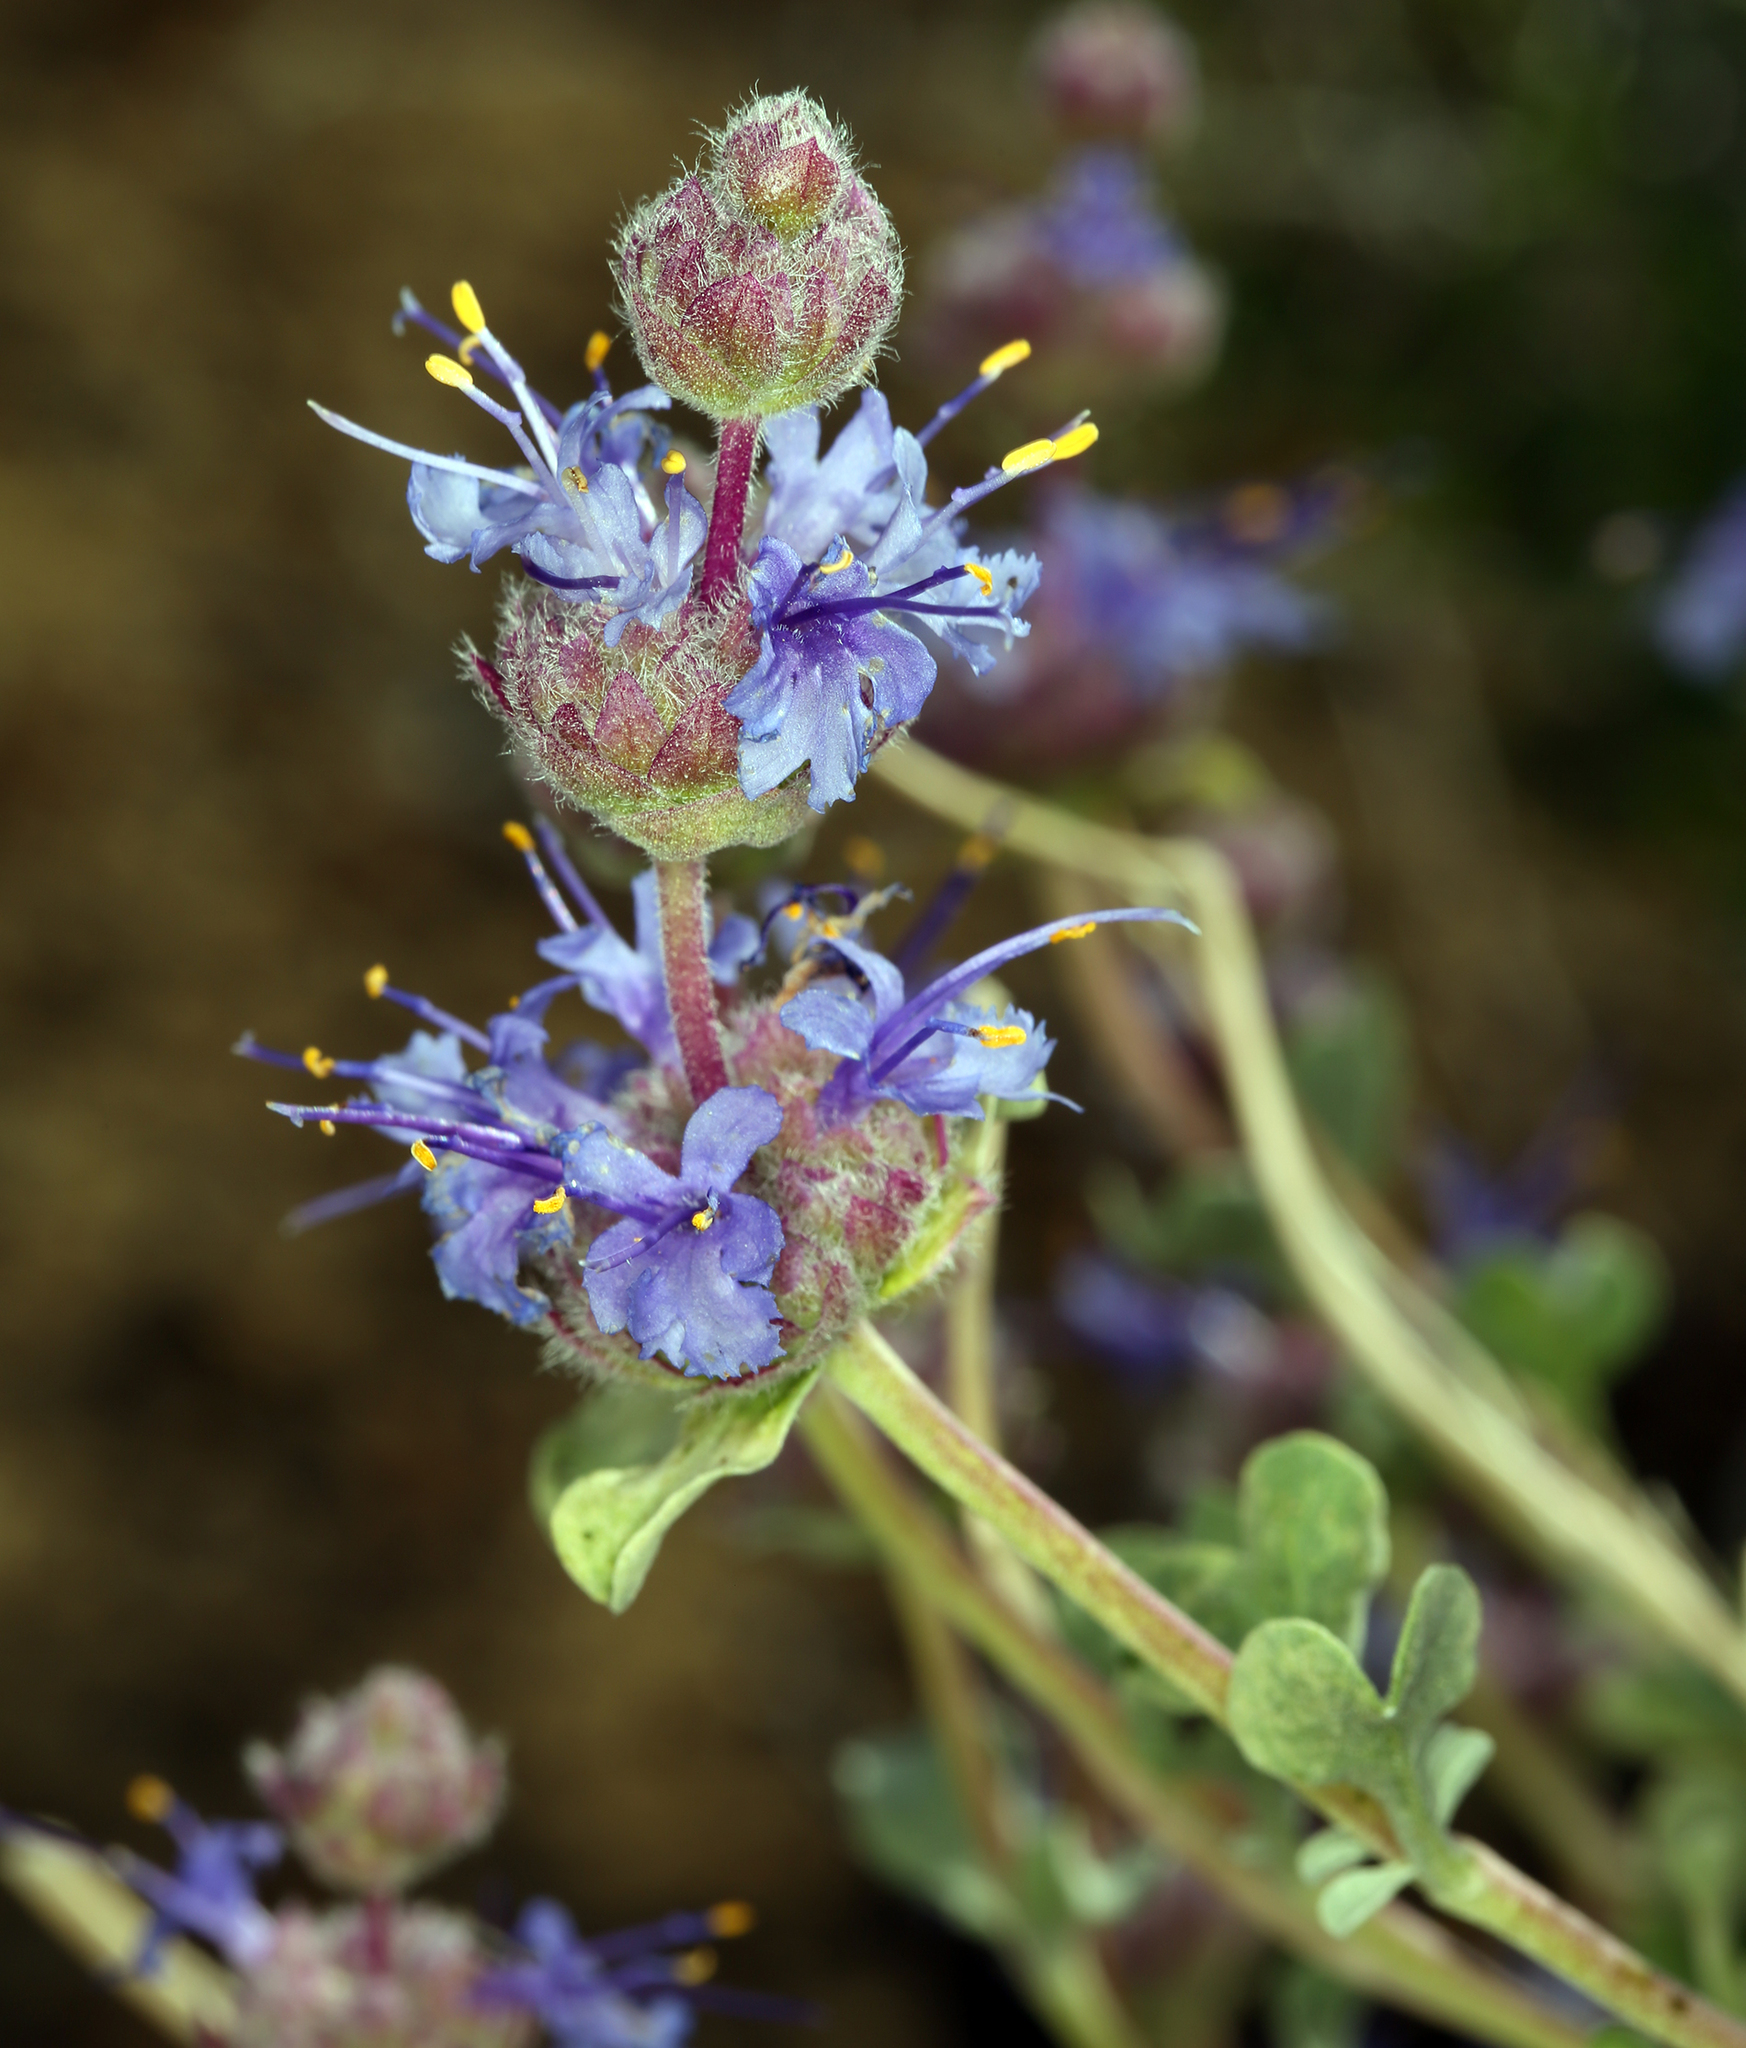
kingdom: Plantae
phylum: Tracheophyta
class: Magnoliopsida
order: Lamiales
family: Lamiaceae
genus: Salvia
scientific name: Salvia dorrii
